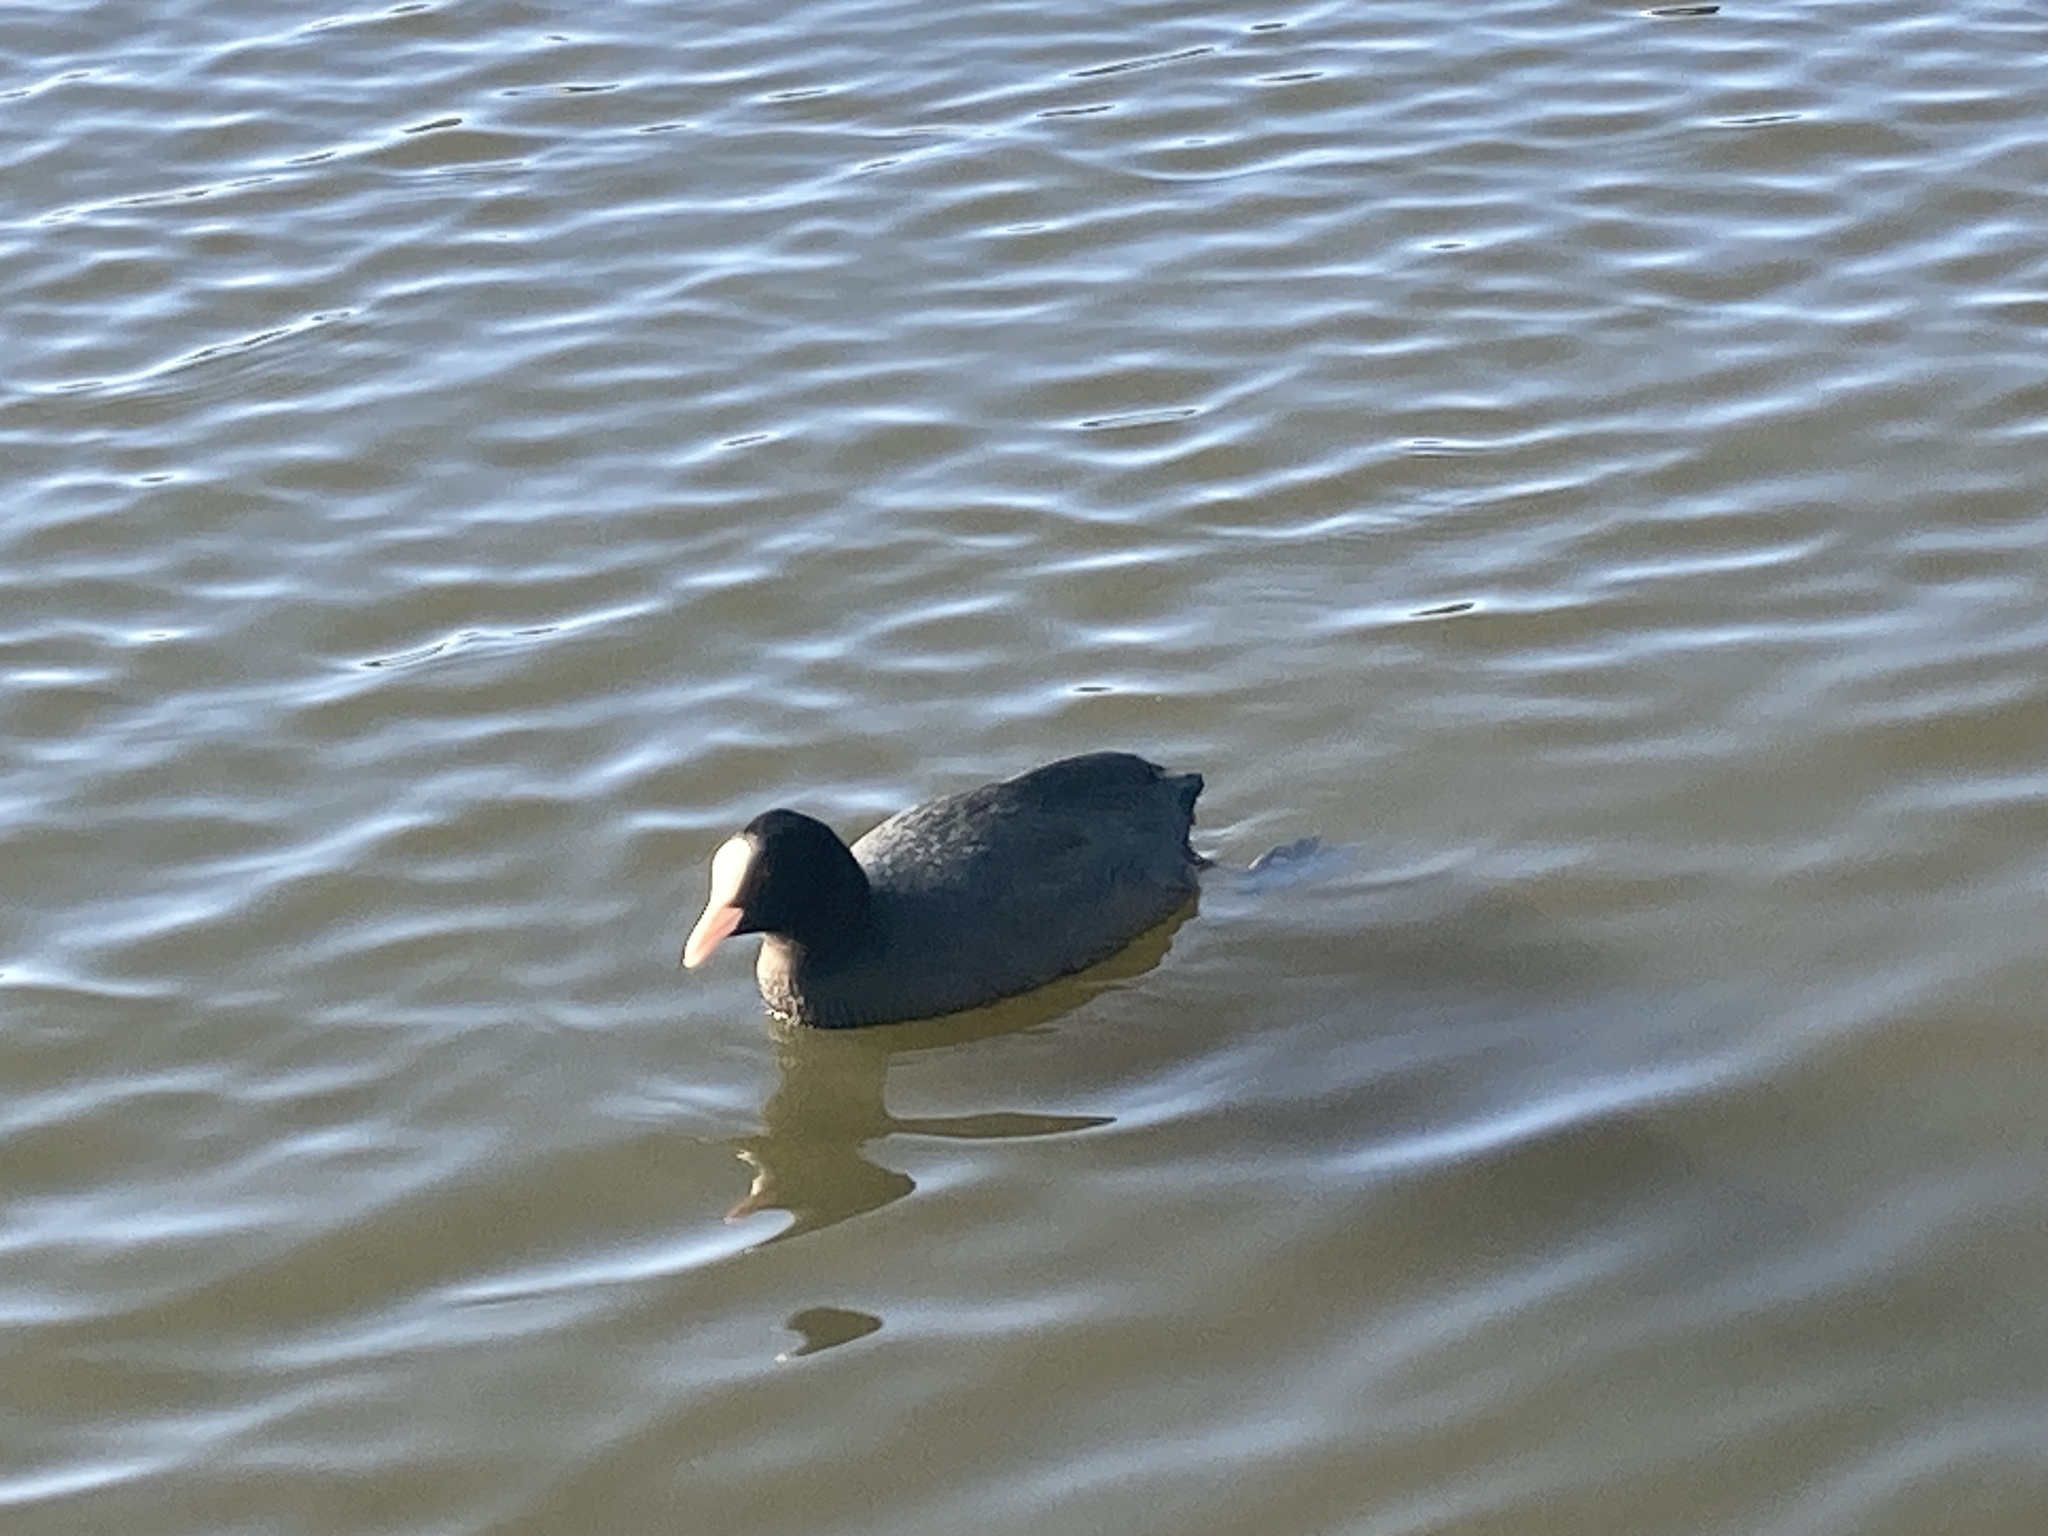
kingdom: Animalia
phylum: Chordata
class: Aves
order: Gruiformes
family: Rallidae
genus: Fulica
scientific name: Fulica atra
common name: Eurasian coot
